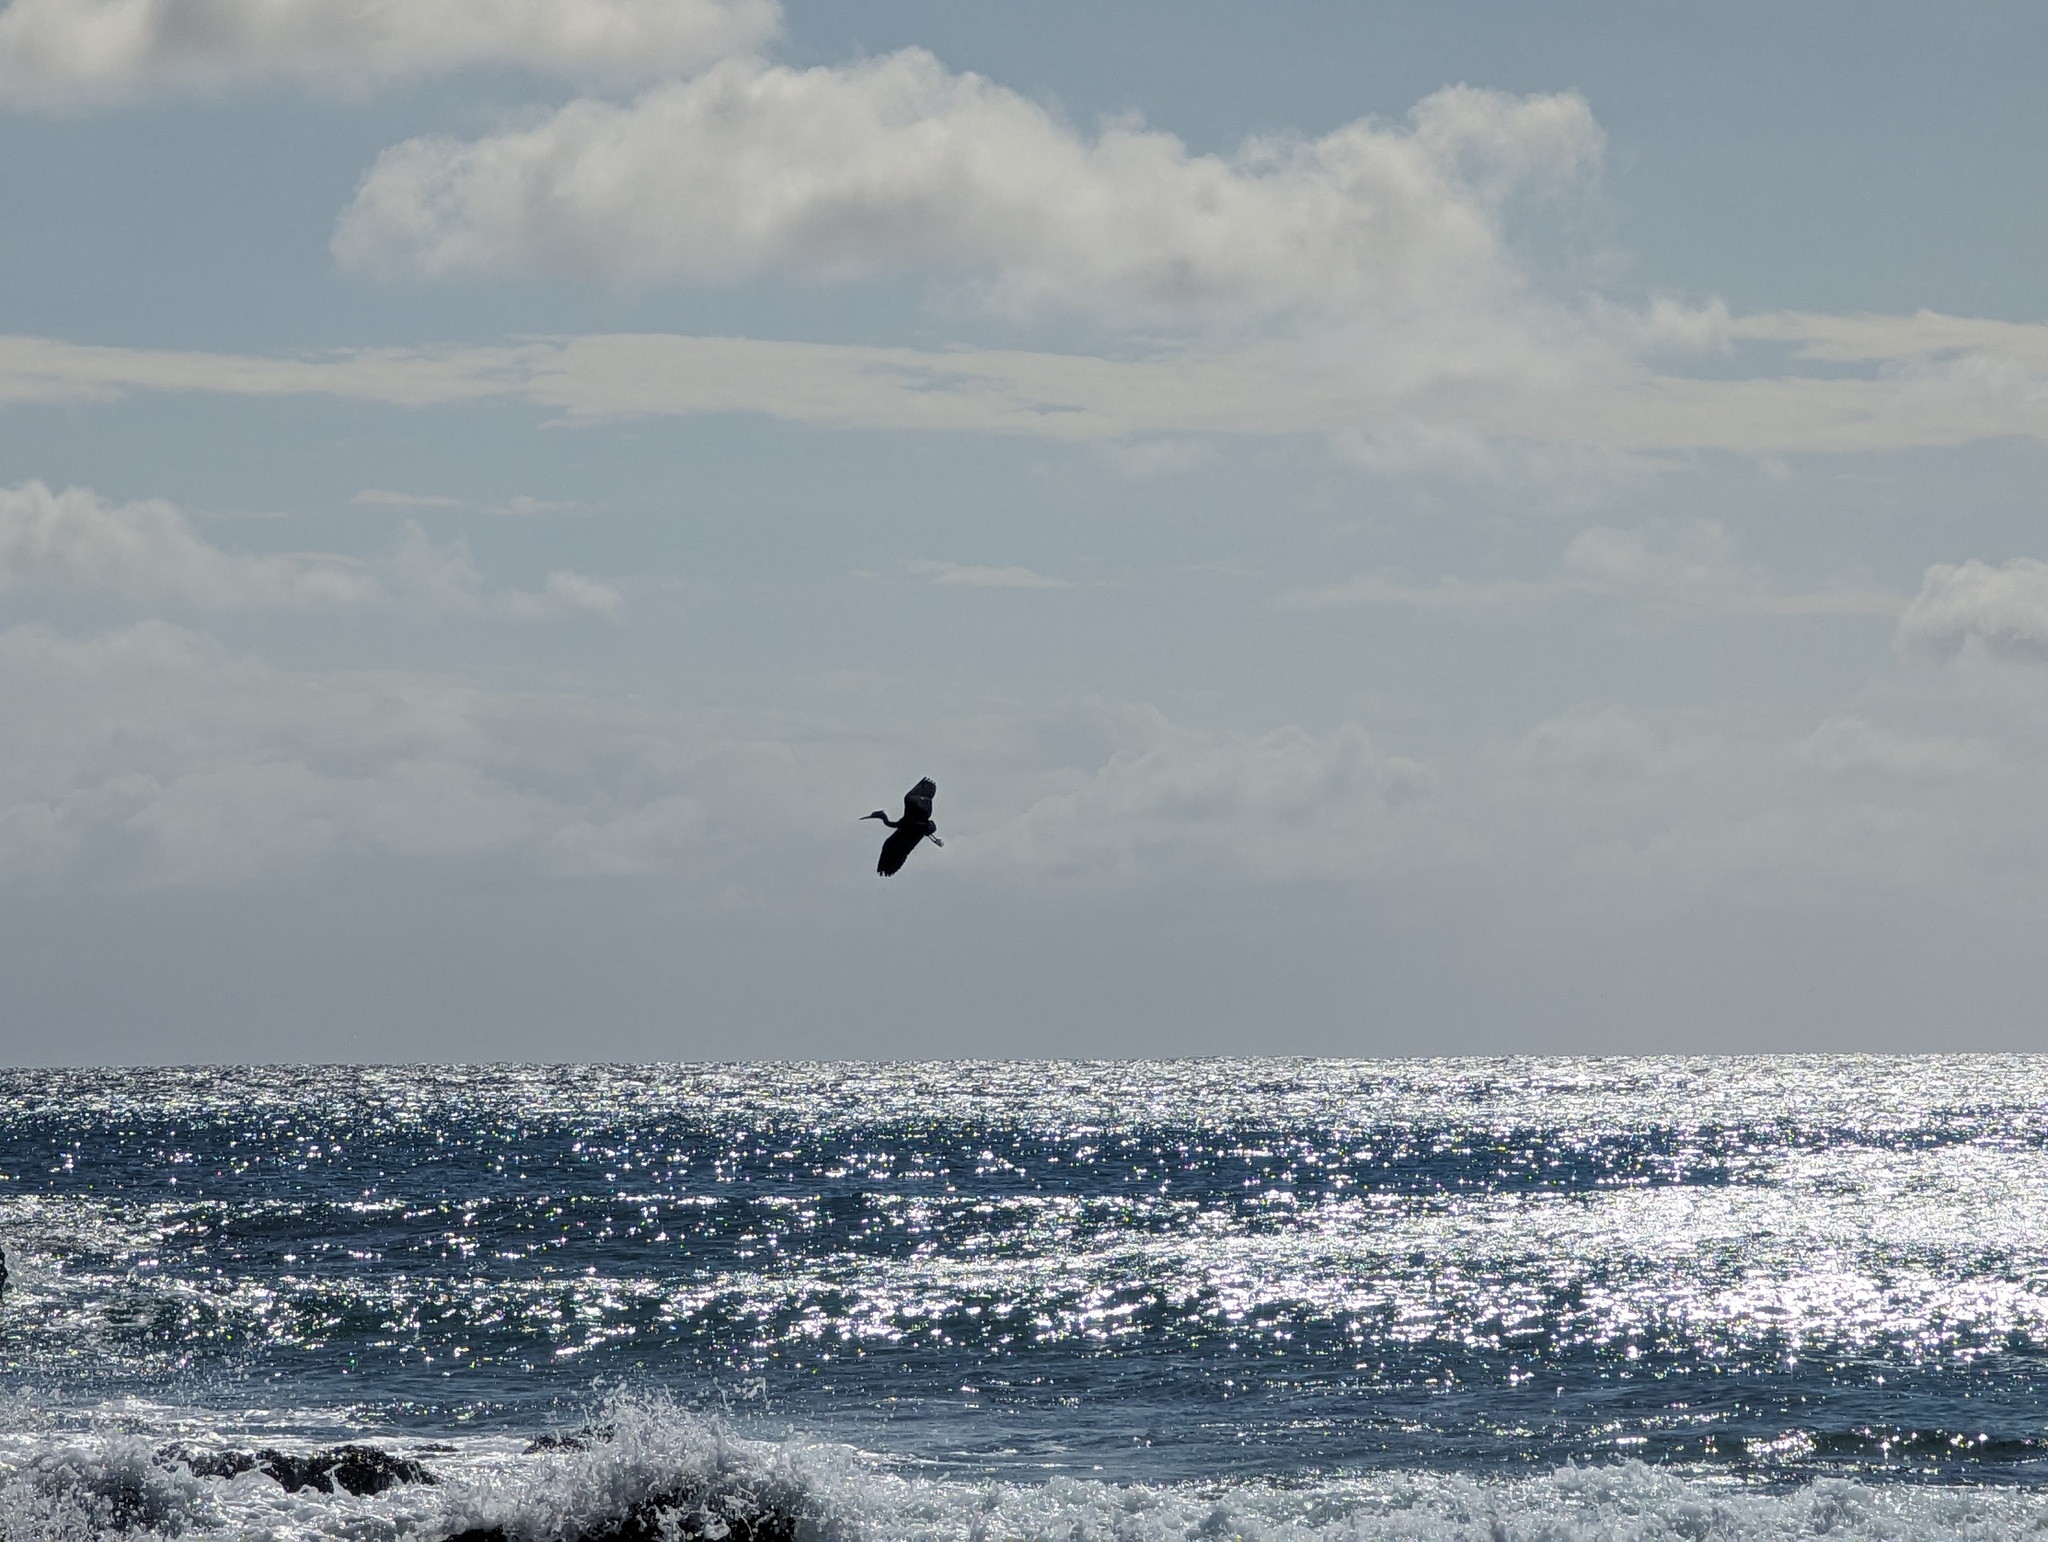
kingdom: Animalia
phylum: Chordata
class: Aves
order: Pelecaniformes
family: Ardeidae
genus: Egretta
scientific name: Egretta sacra
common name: Pacific reef heron
